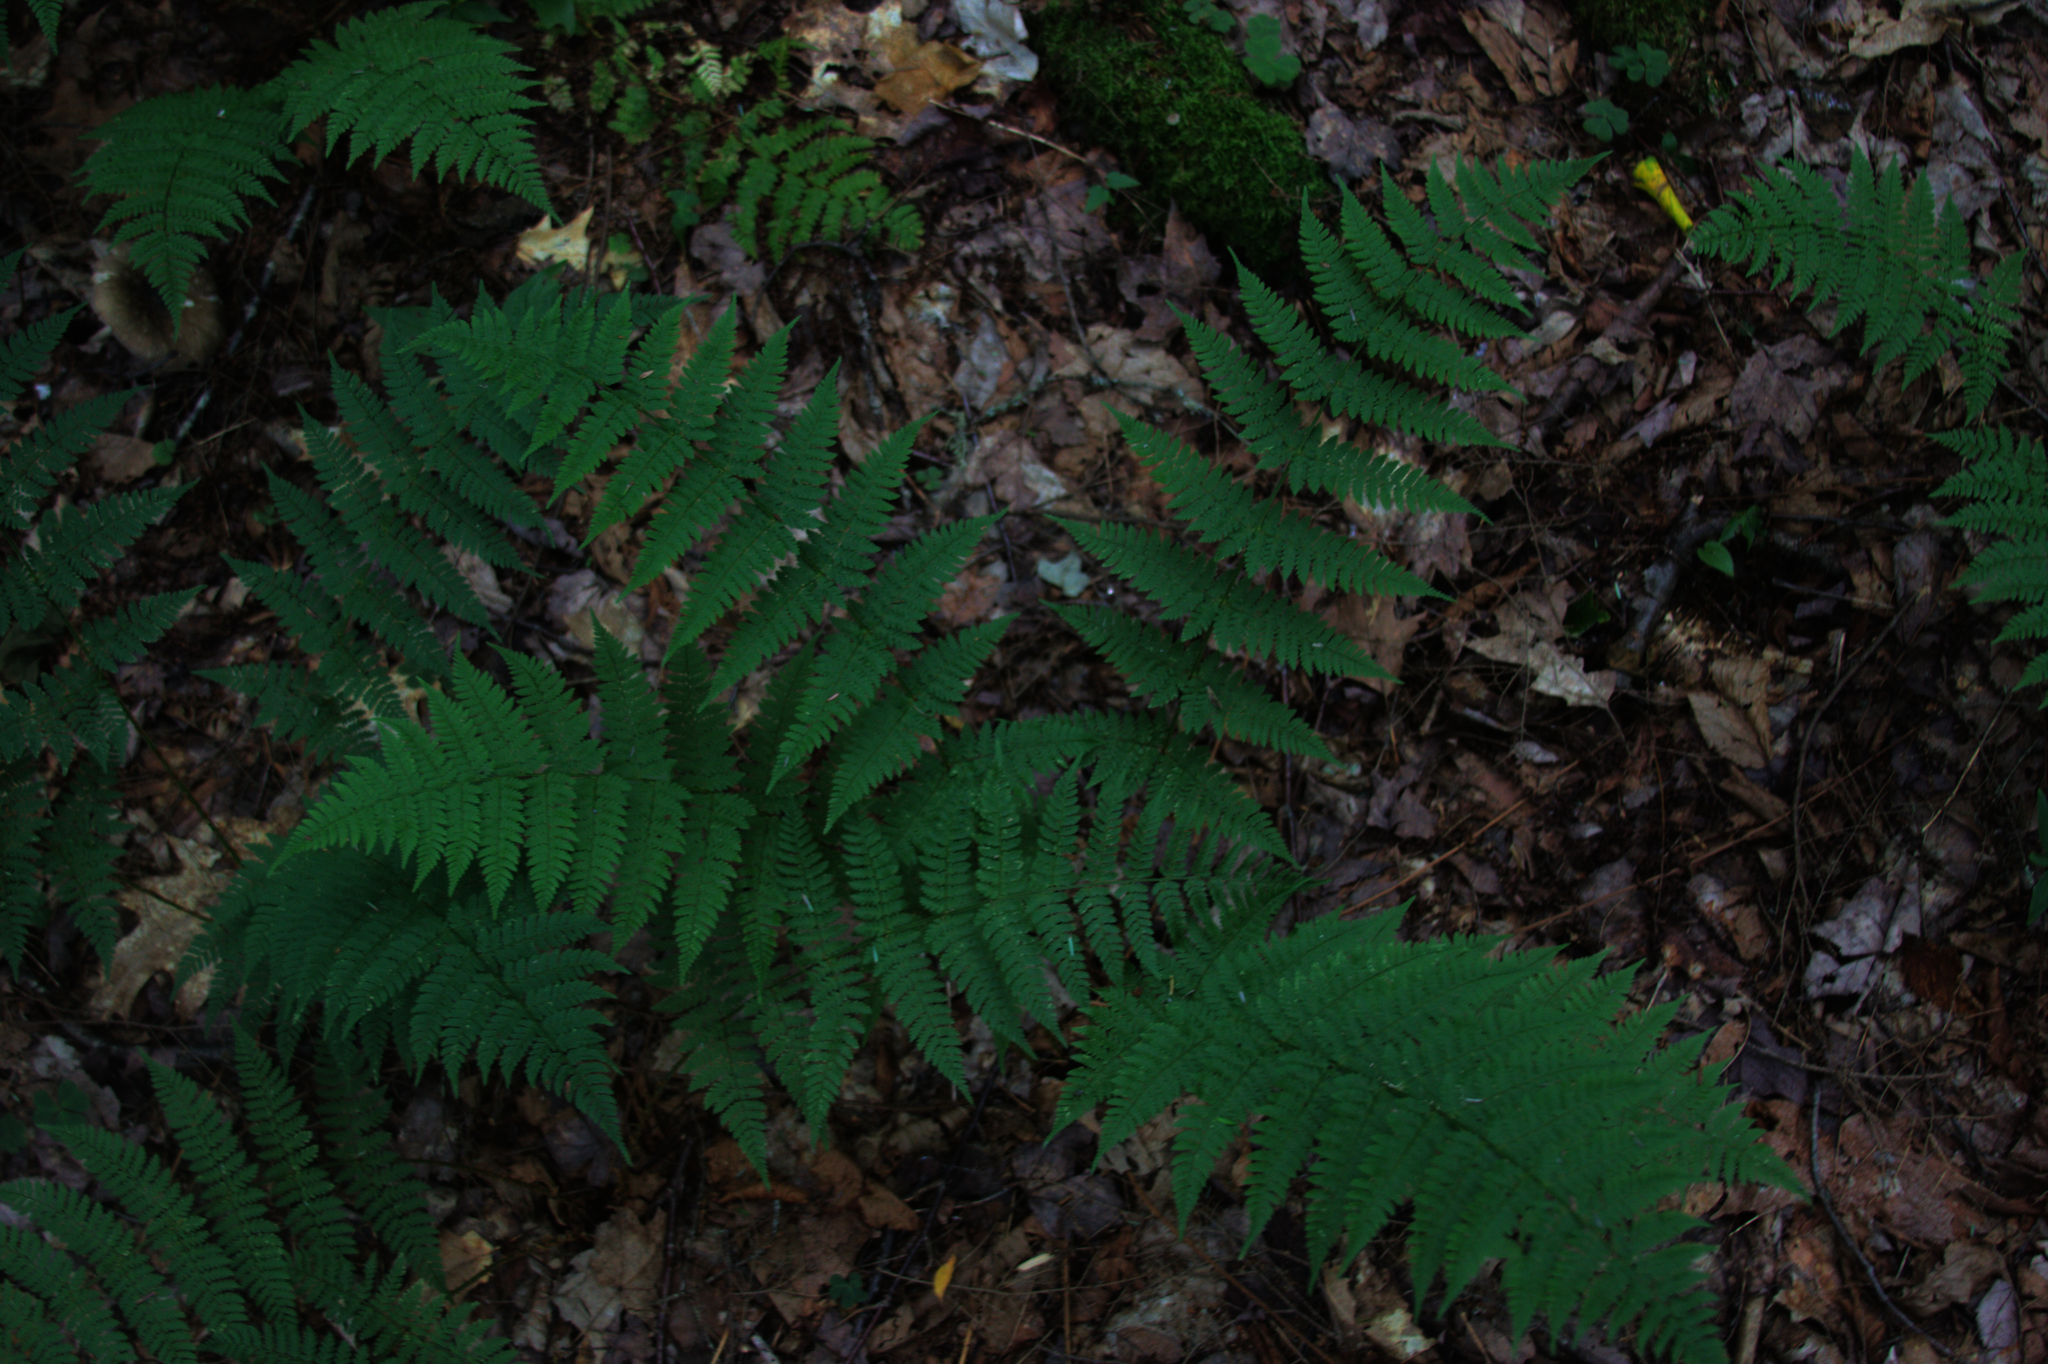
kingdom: Plantae
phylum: Tracheophyta
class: Polypodiopsida
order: Polypodiales
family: Dryopteridaceae
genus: Dryopteris
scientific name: Dryopteris intermedia
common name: Evergreen wood fern
